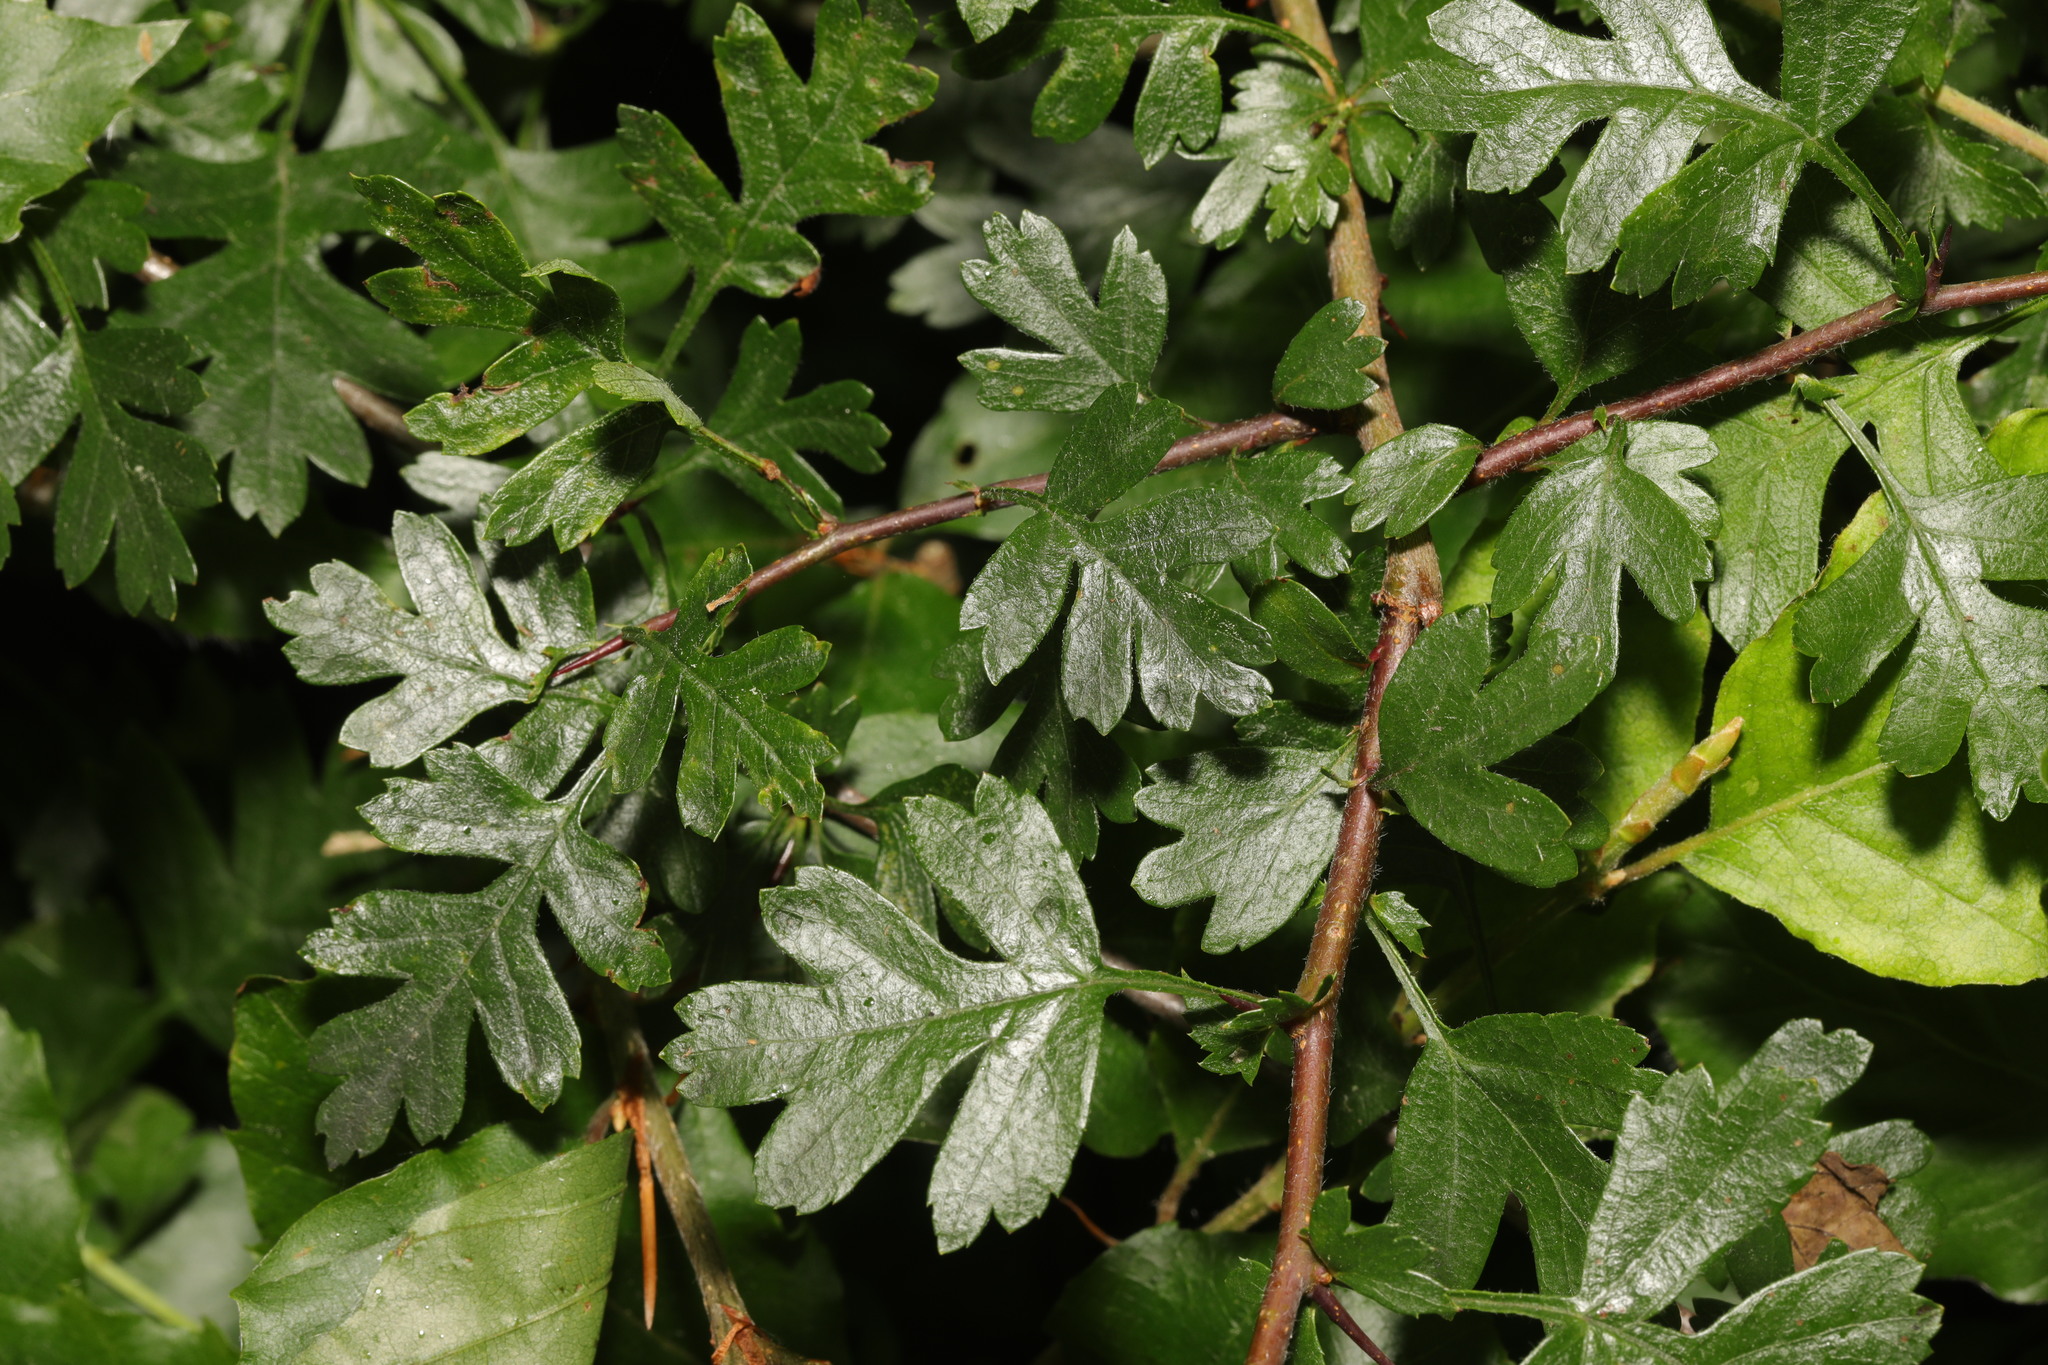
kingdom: Plantae
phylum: Tracheophyta
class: Magnoliopsida
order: Rosales
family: Rosaceae
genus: Crataegus
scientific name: Crataegus monogyna
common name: Hawthorn
